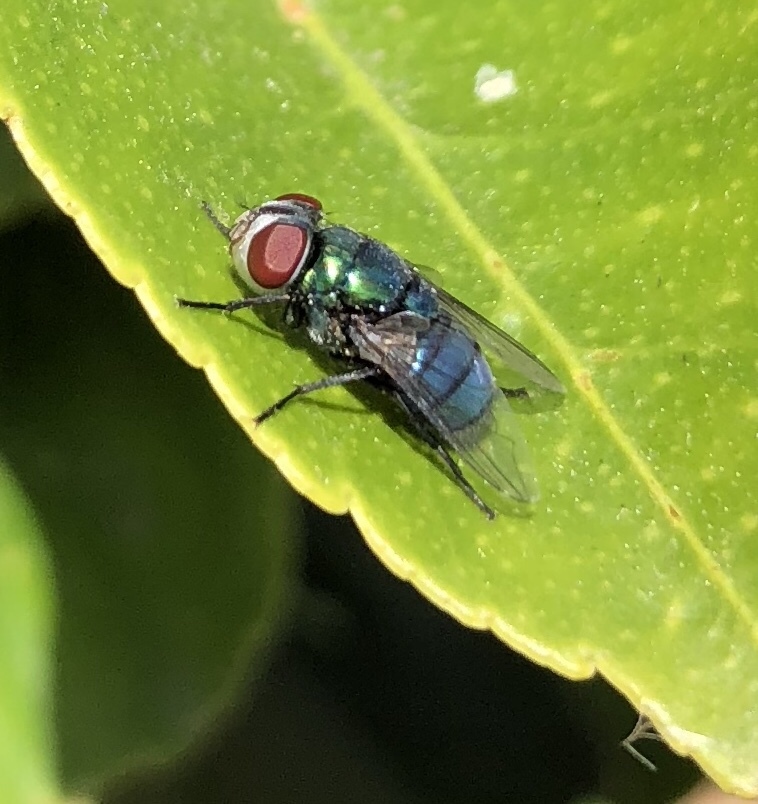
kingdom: Animalia
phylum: Arthropoda
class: Insecta
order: Diptera
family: Calliphoridae
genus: Chrysomya
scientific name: Chrysomya rufifacies
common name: Blow fly
